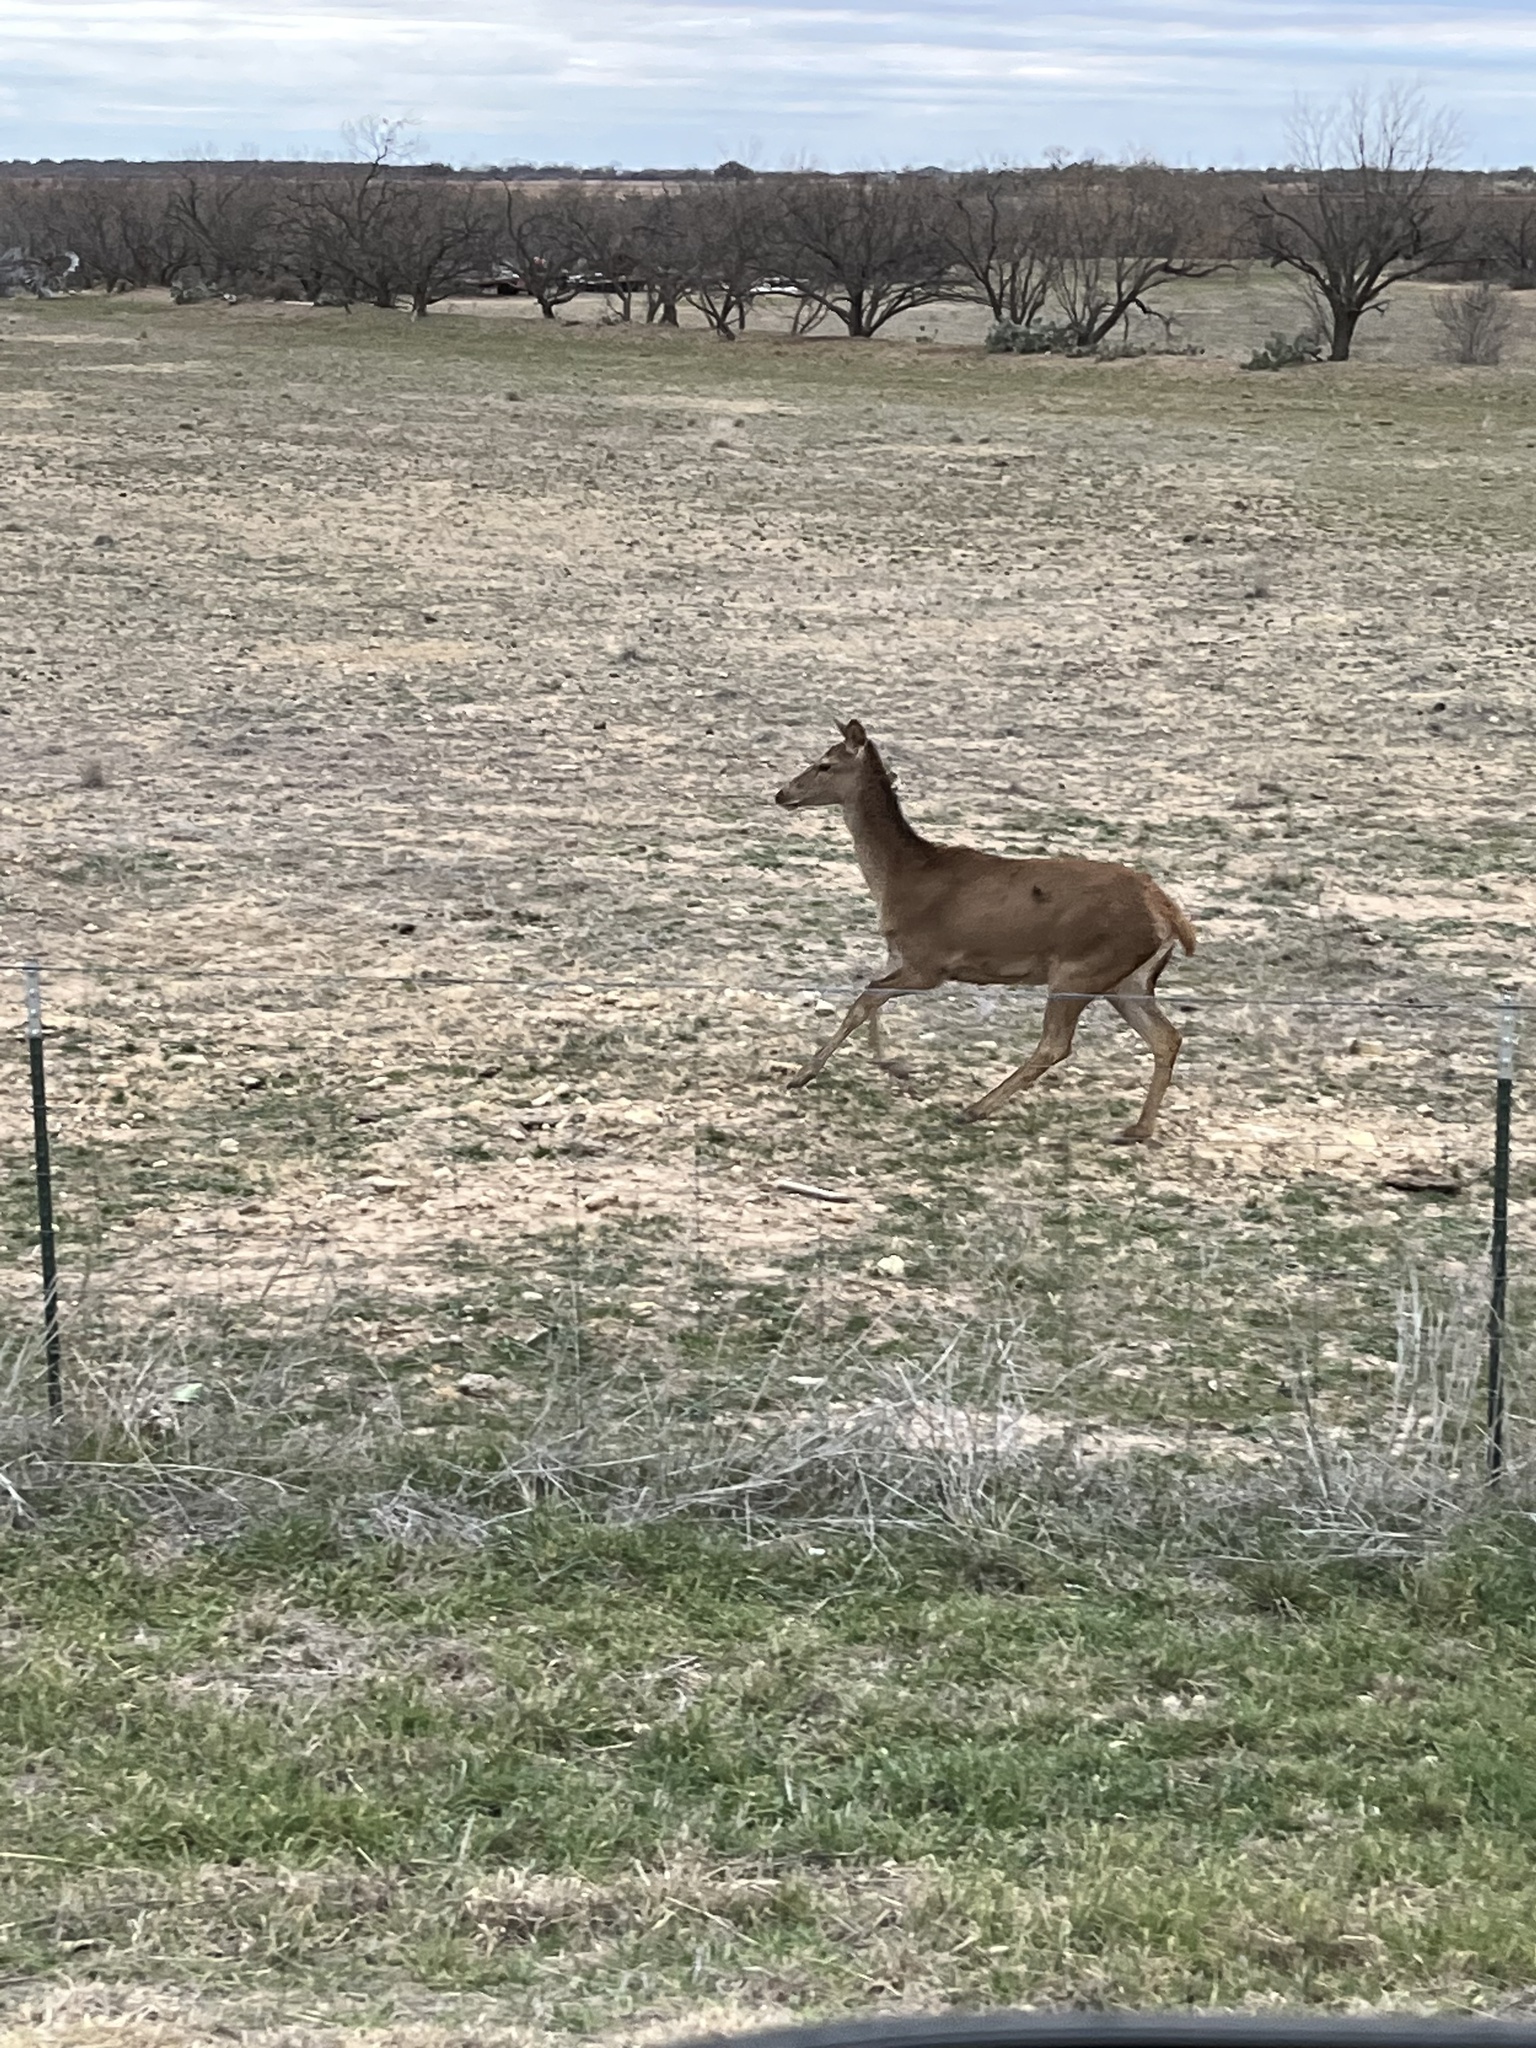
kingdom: Animalia
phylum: Chordata
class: Mammalia
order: Artiodactyla
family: Cervidae
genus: Cervus
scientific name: Cervus elaphus
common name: Red deer
